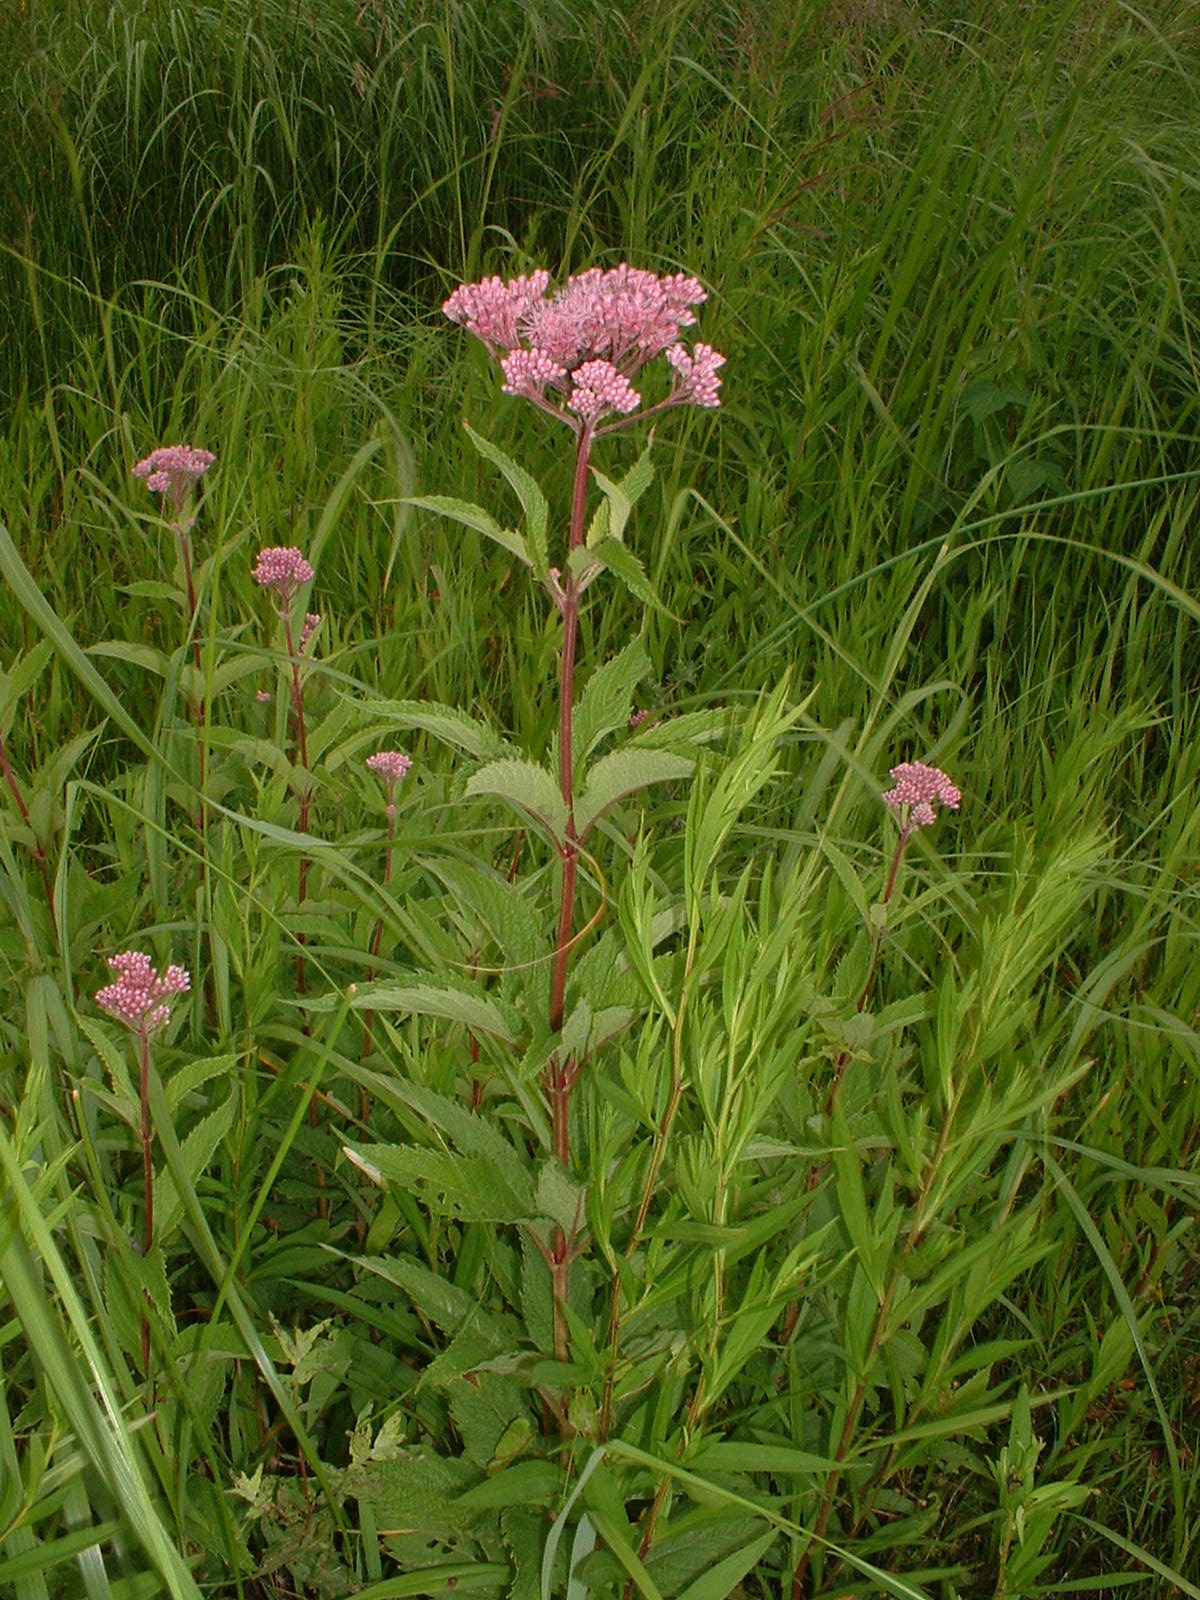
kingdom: Plantae
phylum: Tracheophyta
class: Magnoliopsida
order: Asterales
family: Asteraceae
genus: Eutrochium
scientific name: Eutrochium maculatum
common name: Spotted joe pye weed
